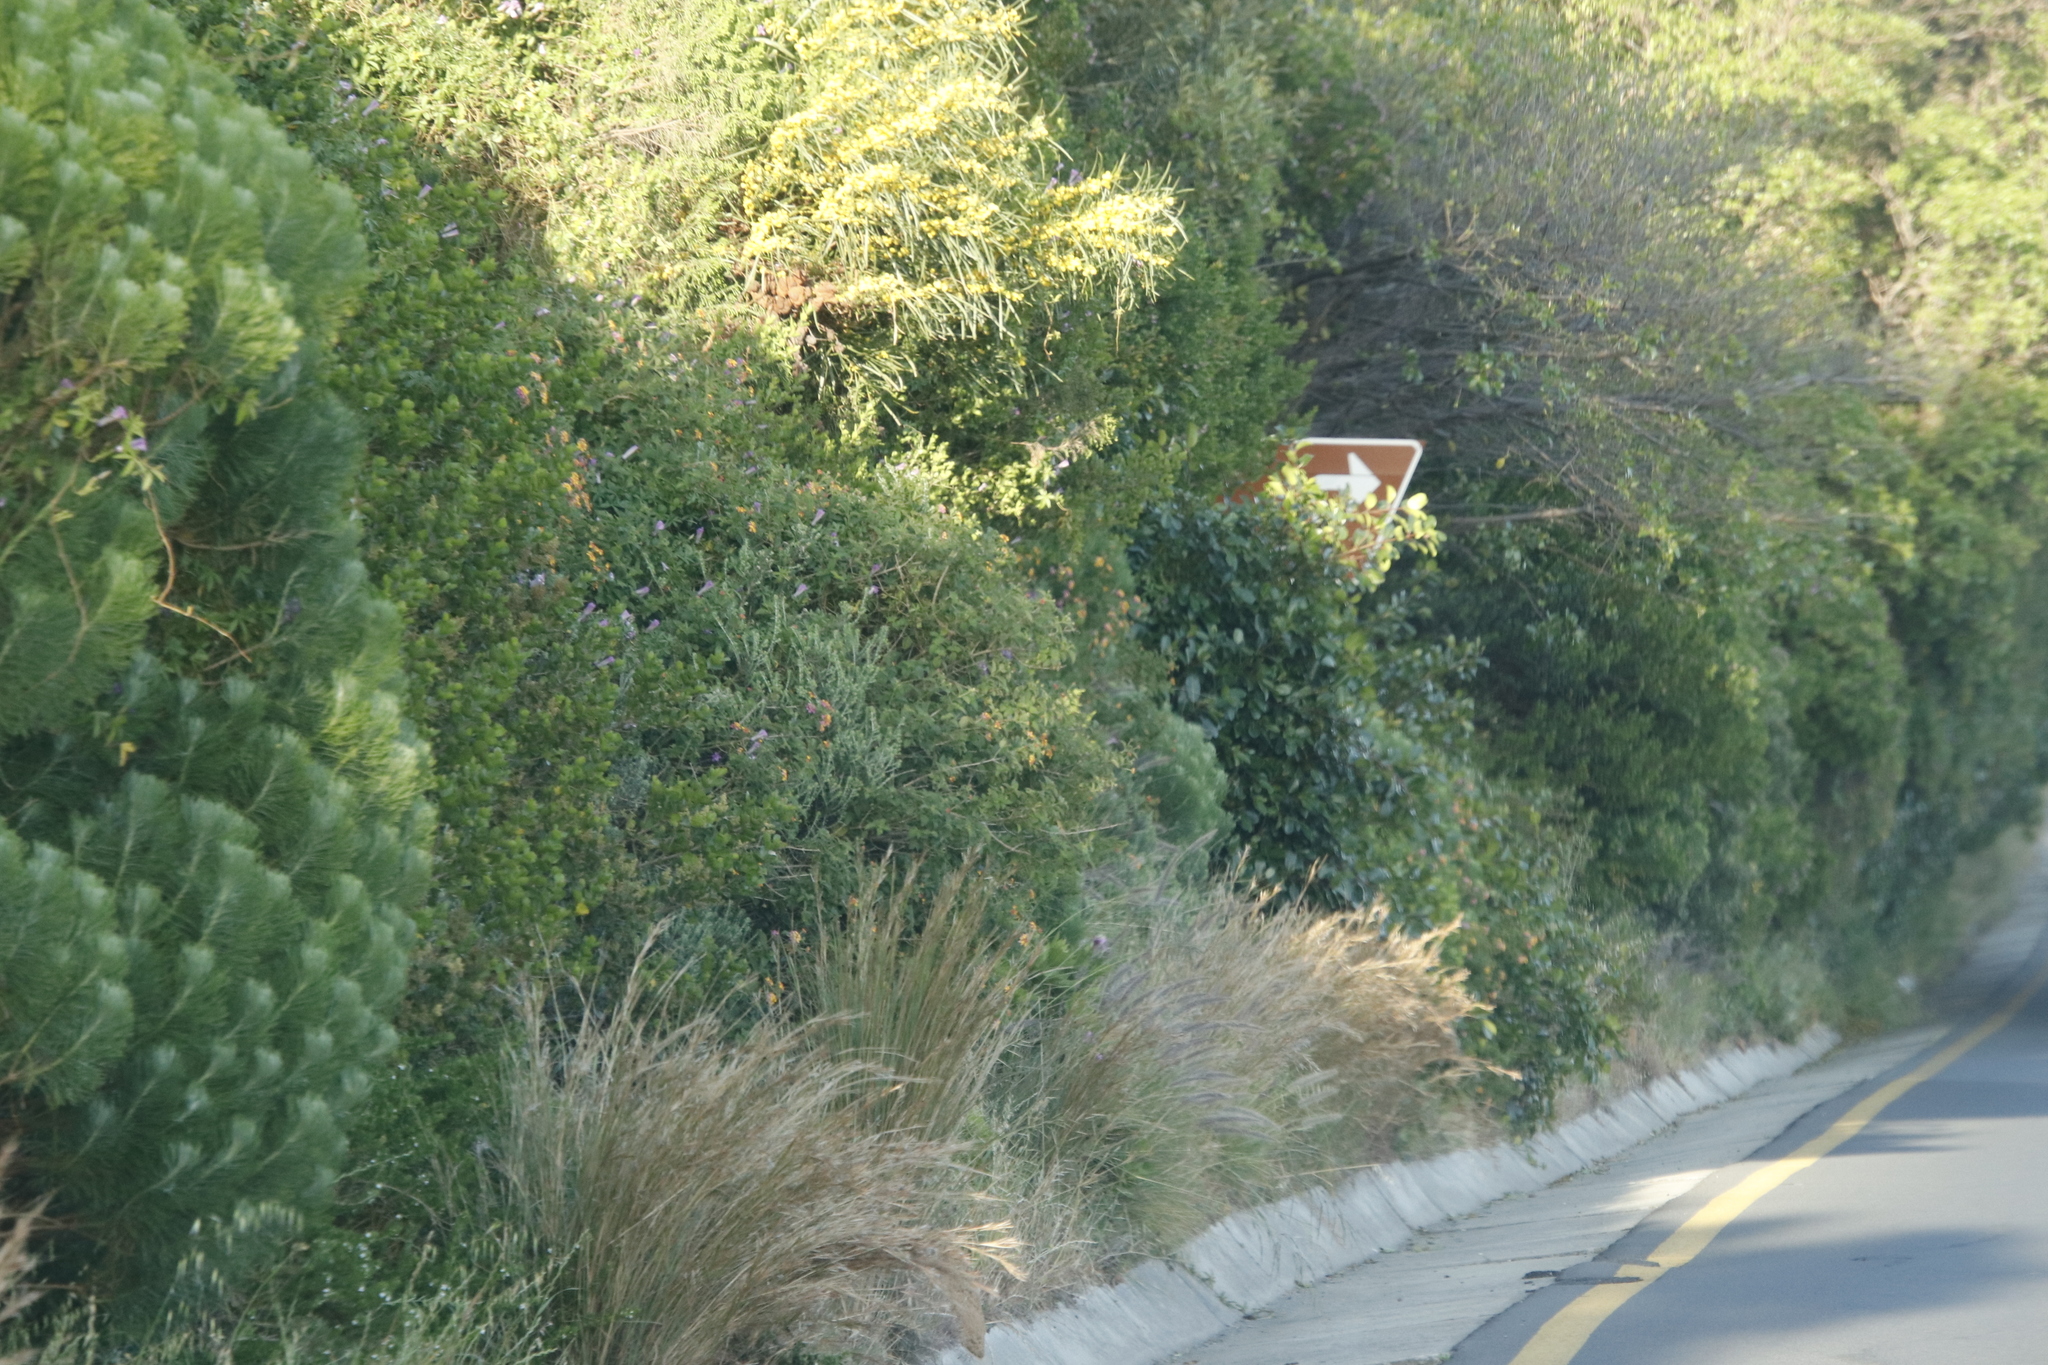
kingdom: Plantae
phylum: Tracheophyta
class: Liliopsida
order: Poales
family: Poaceae
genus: Cenchrus
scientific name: Cenchrus setaceus
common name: Crimson fountaingrass
